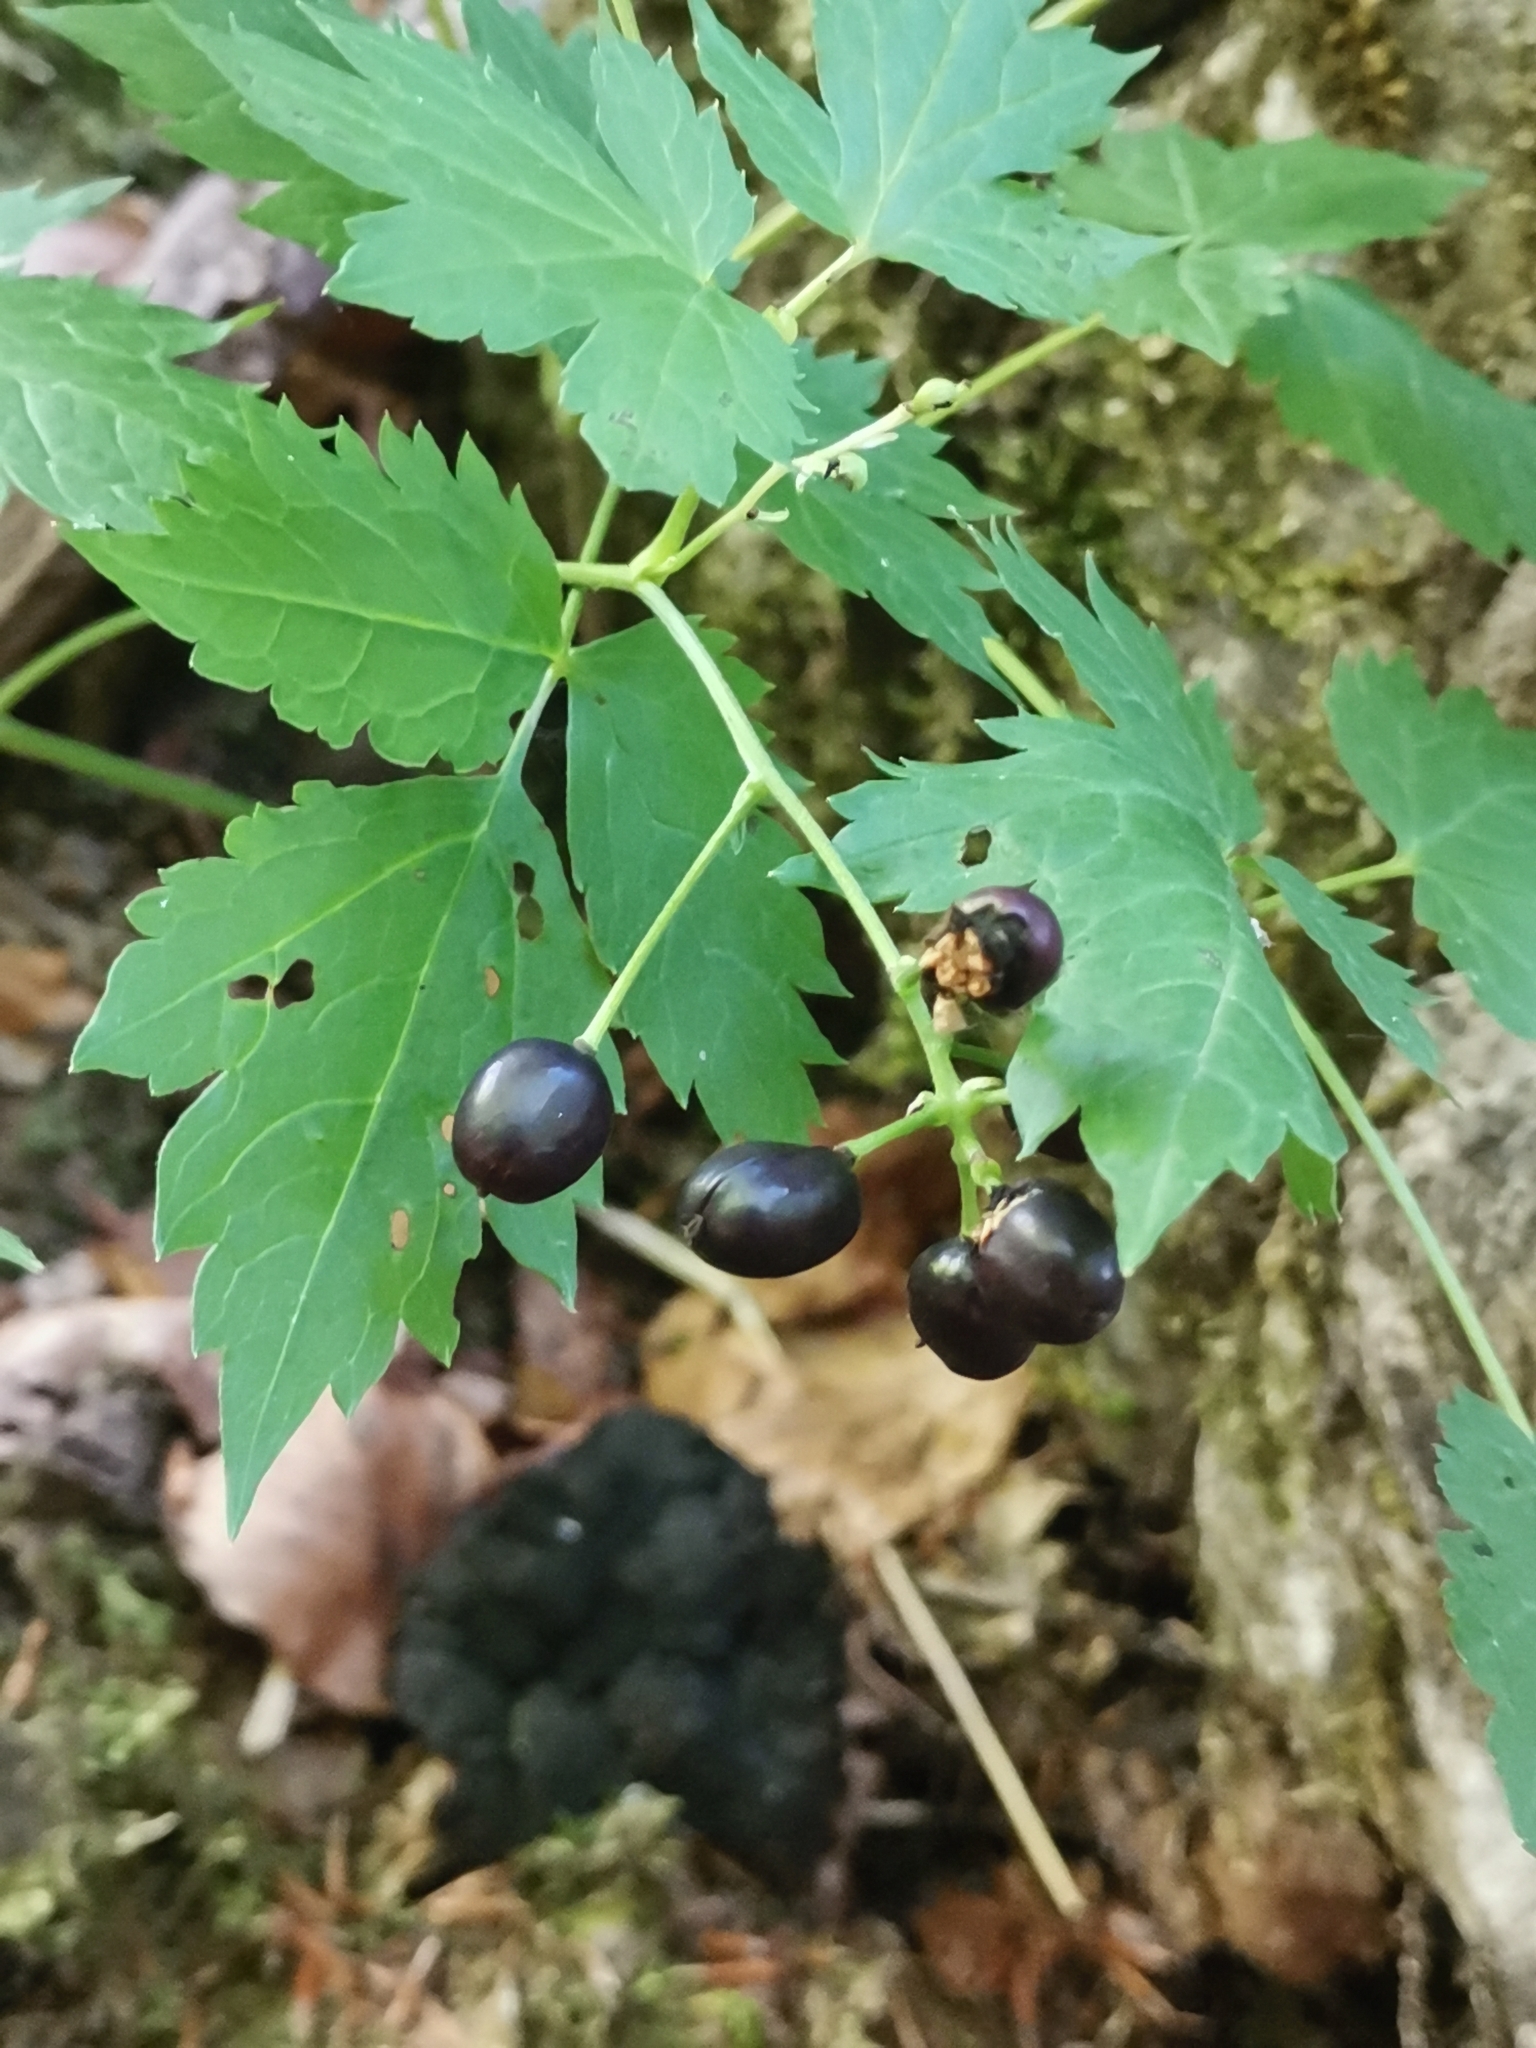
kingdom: Plantae
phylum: Tracheophyta
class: Magnoliopsida
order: Ranunculales
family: Ranunculaceae
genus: Actaea
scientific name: Actaea spicata
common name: Baneberry
